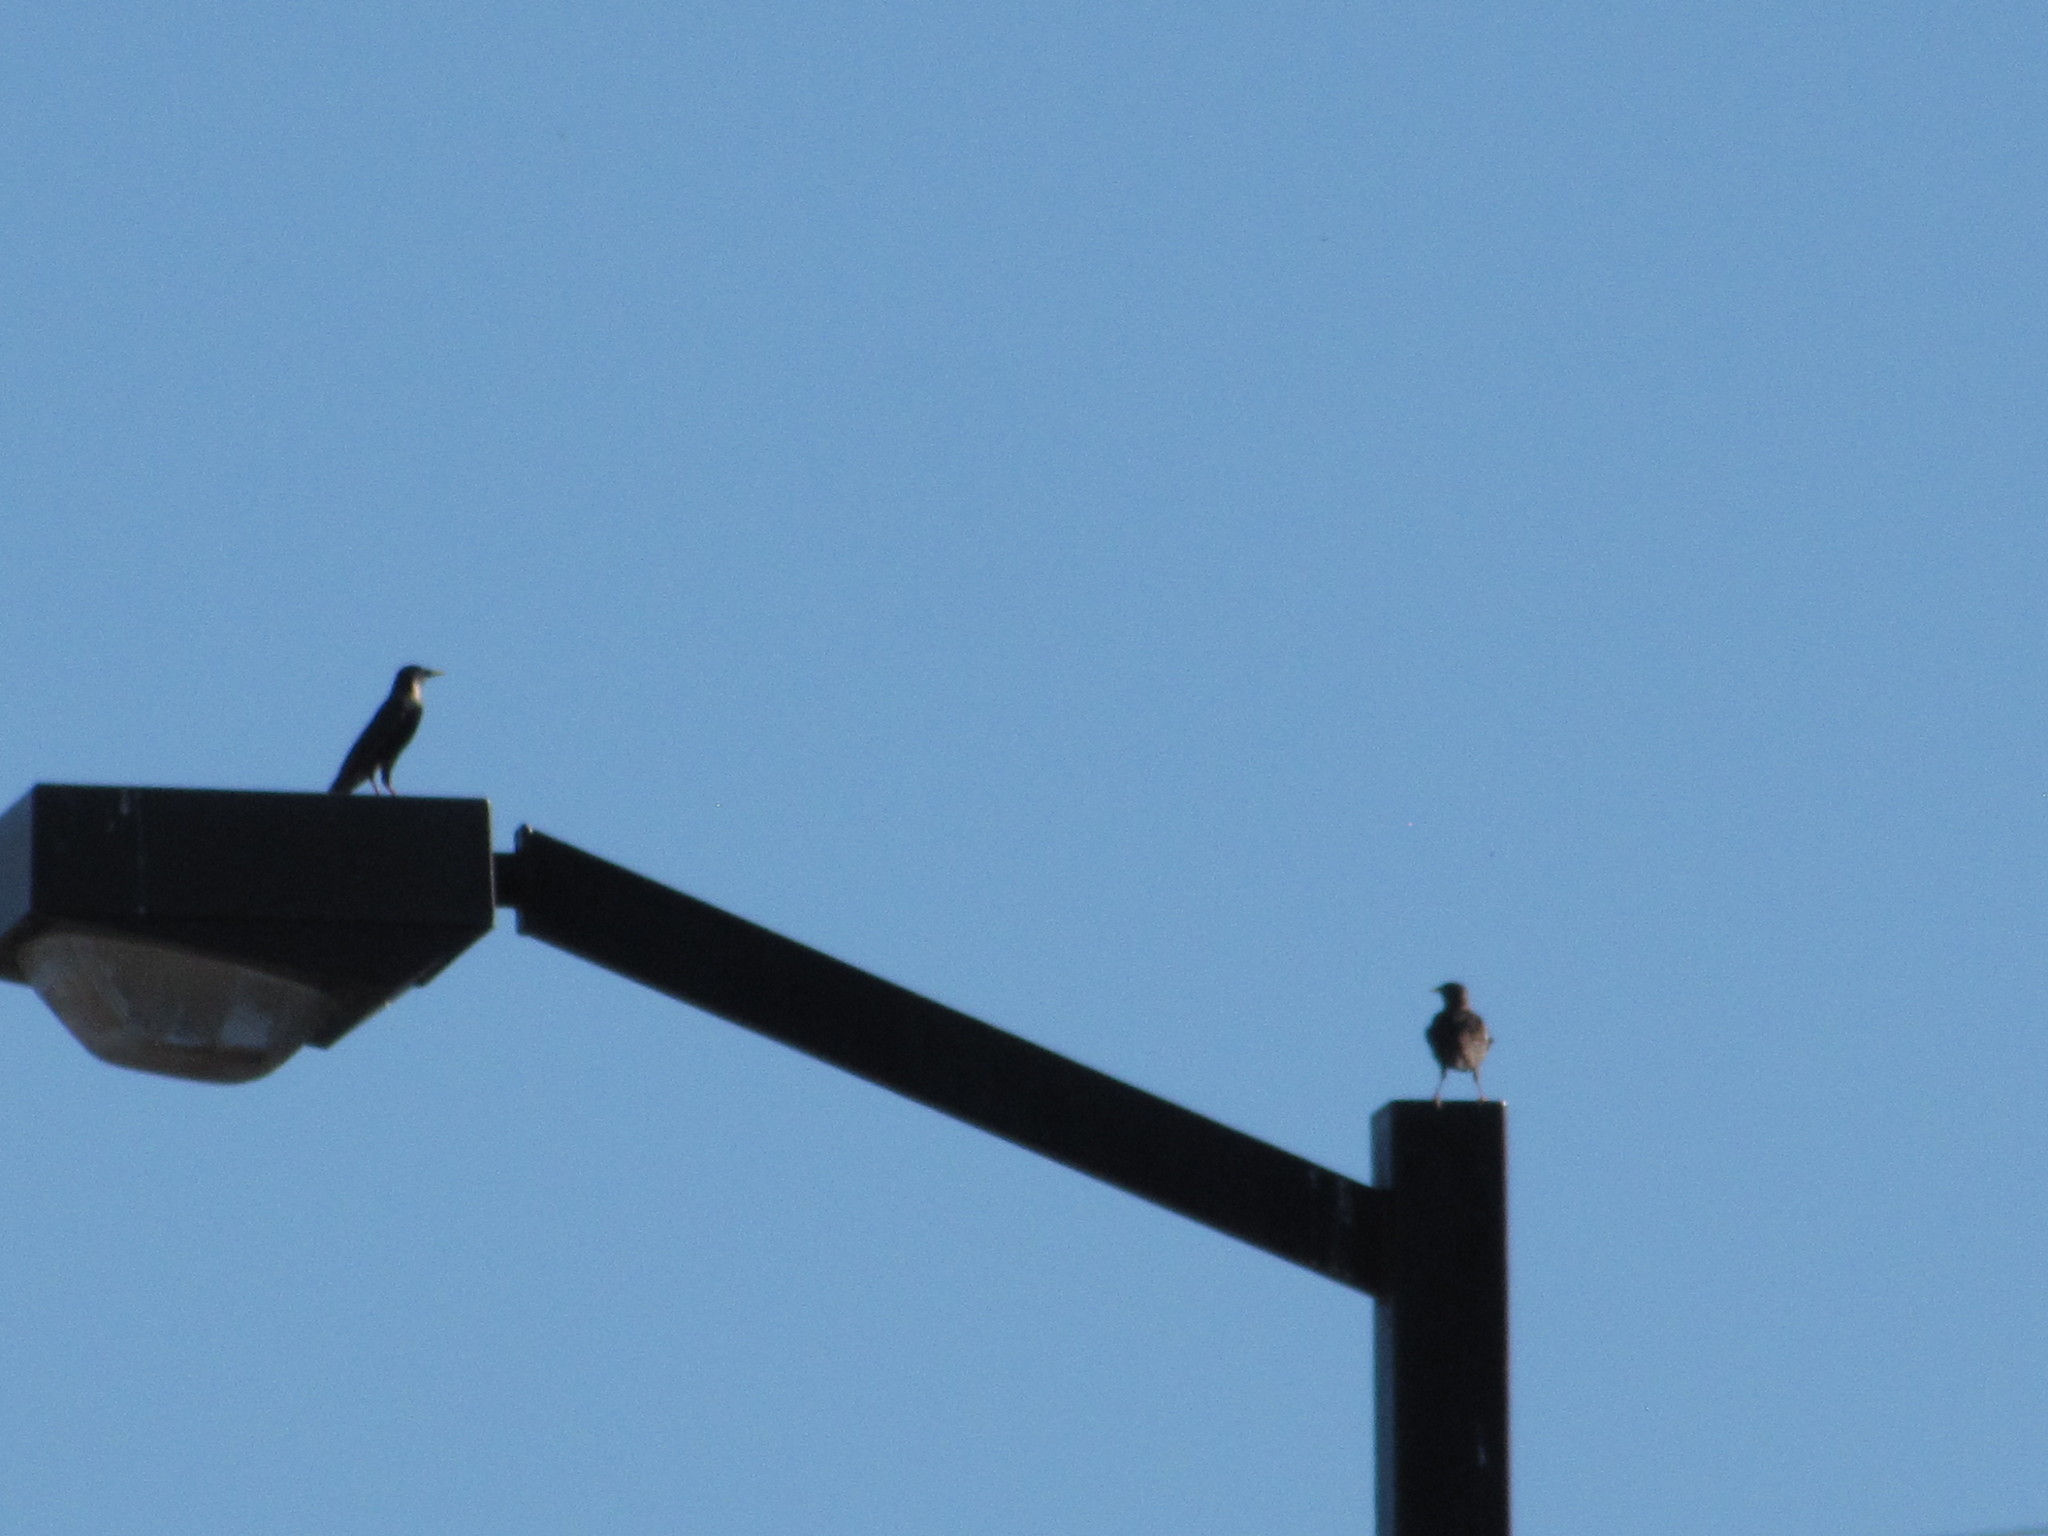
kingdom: Animalia
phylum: Chordata
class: Aves
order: Passeriformes
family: Sturnidae
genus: Sturnus
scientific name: Sturnus vulgaris
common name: Common starling
